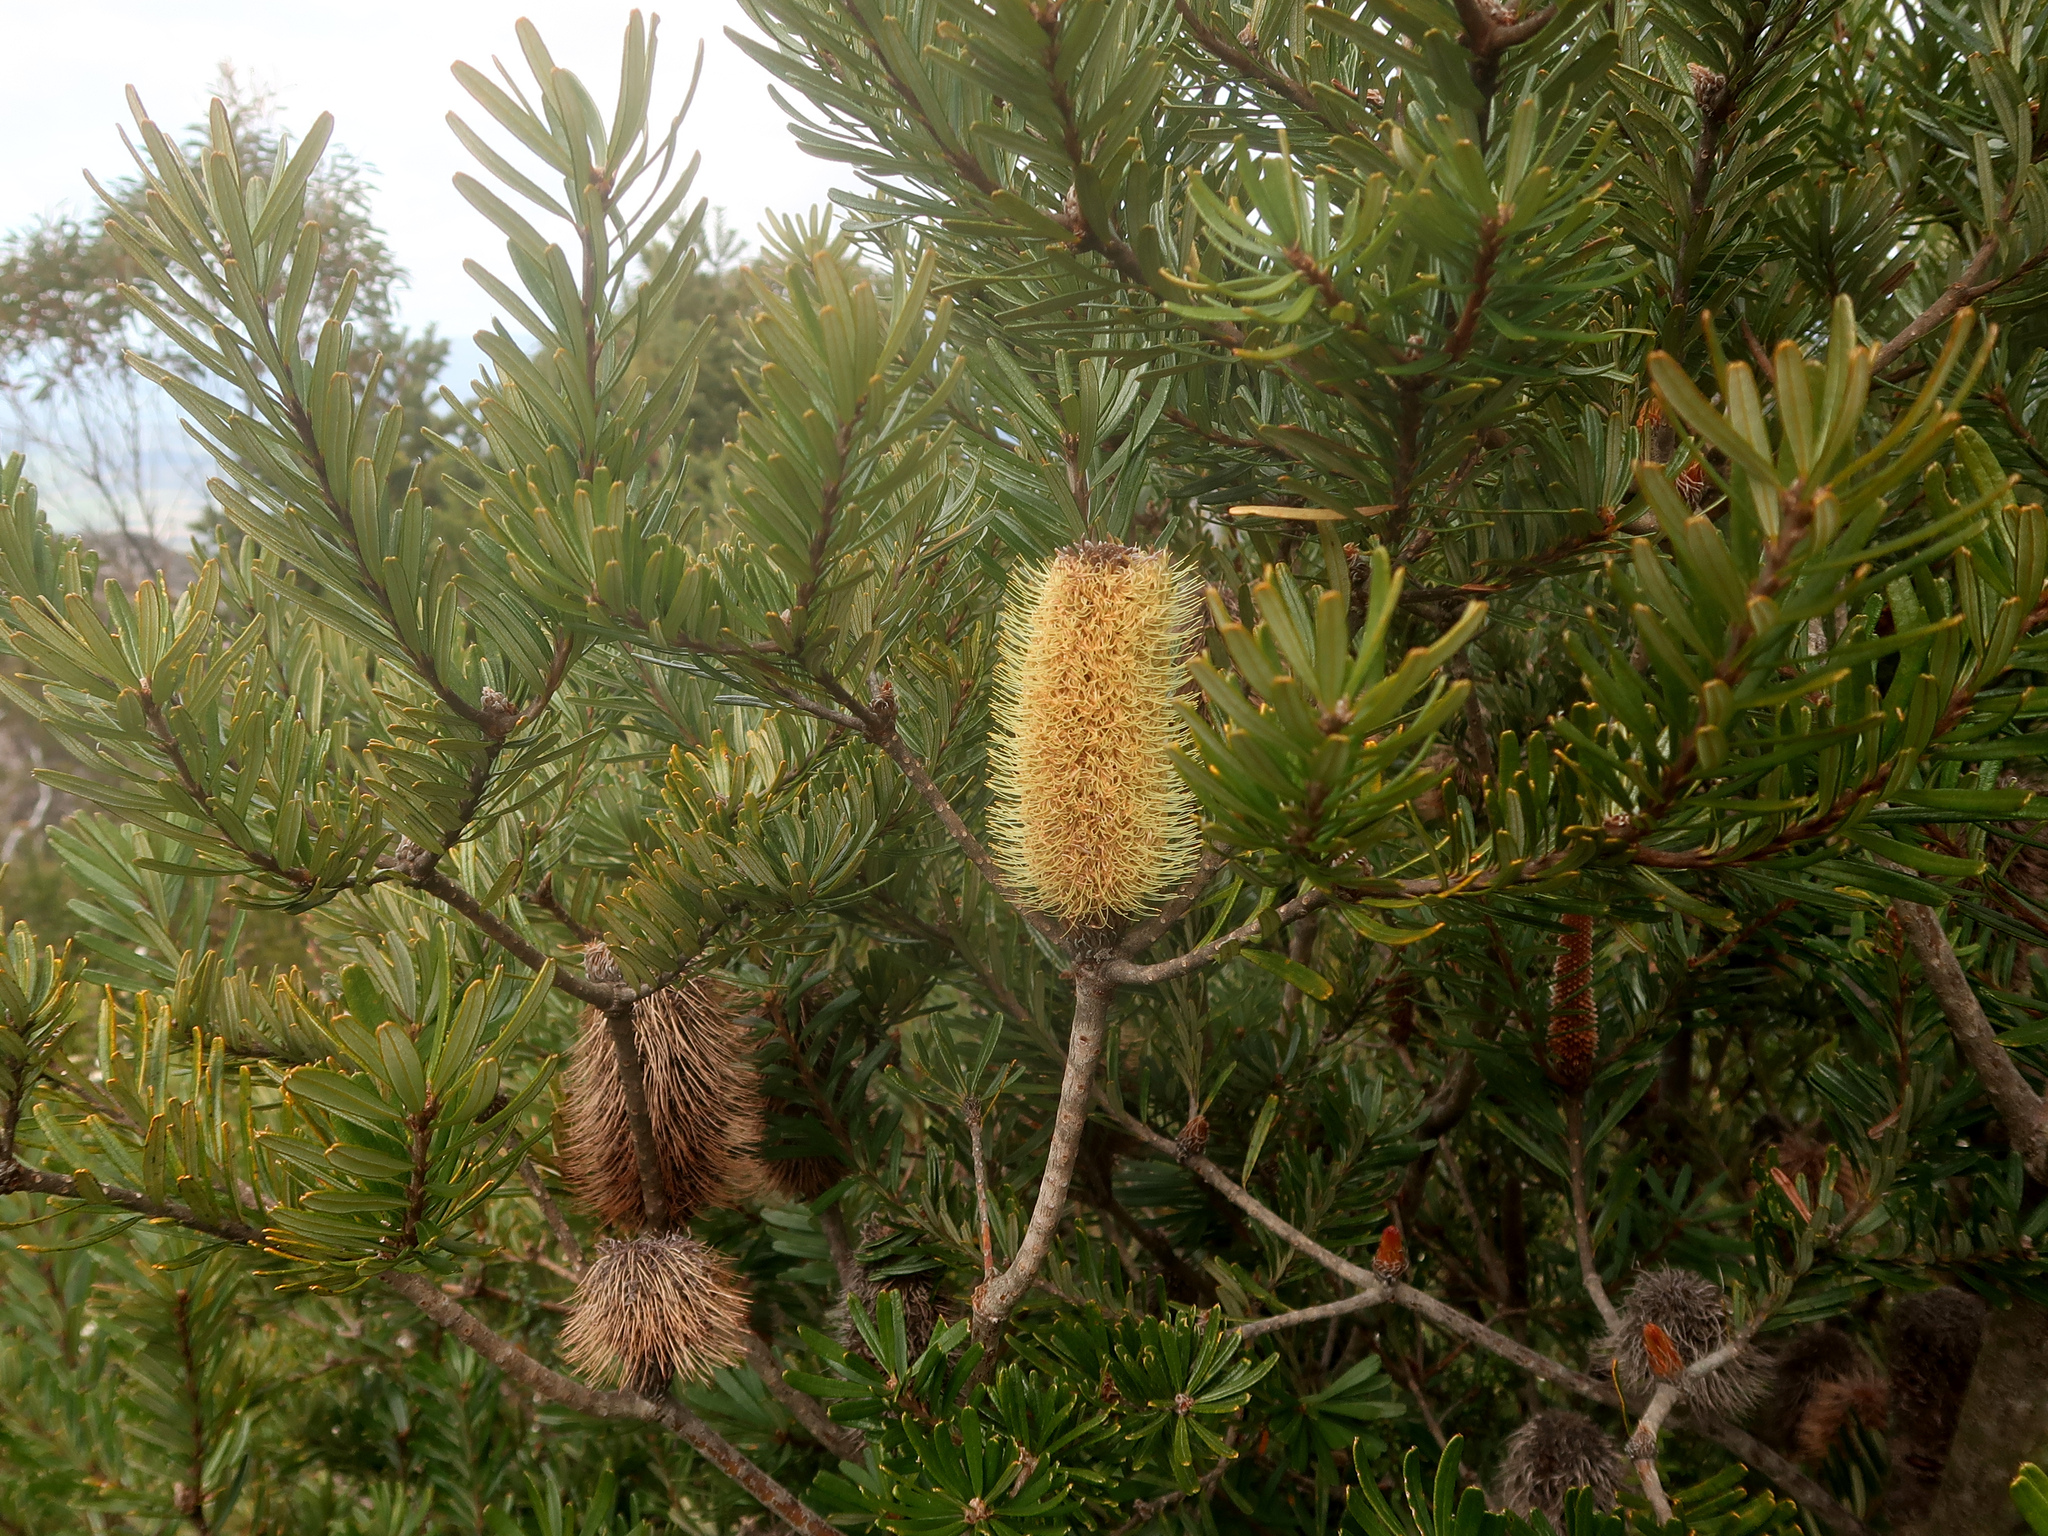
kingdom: Plantae
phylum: Tracheophyta
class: Magnoliopsida
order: Proteales
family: Proteaceae
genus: Banksia
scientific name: Banksia marginata
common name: Silver banksia
